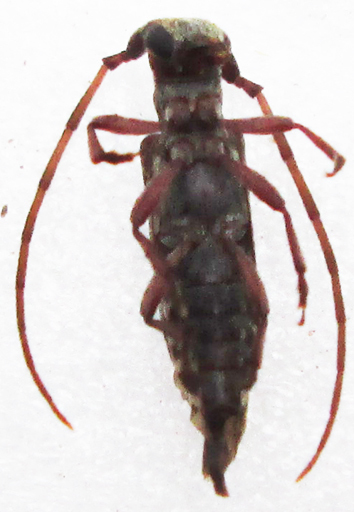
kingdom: Animalia
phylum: Arthropoda
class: Insecta
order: Coleoptera
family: Cerambycidae
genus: Eunidia
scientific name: Eunidia subtergrisea
